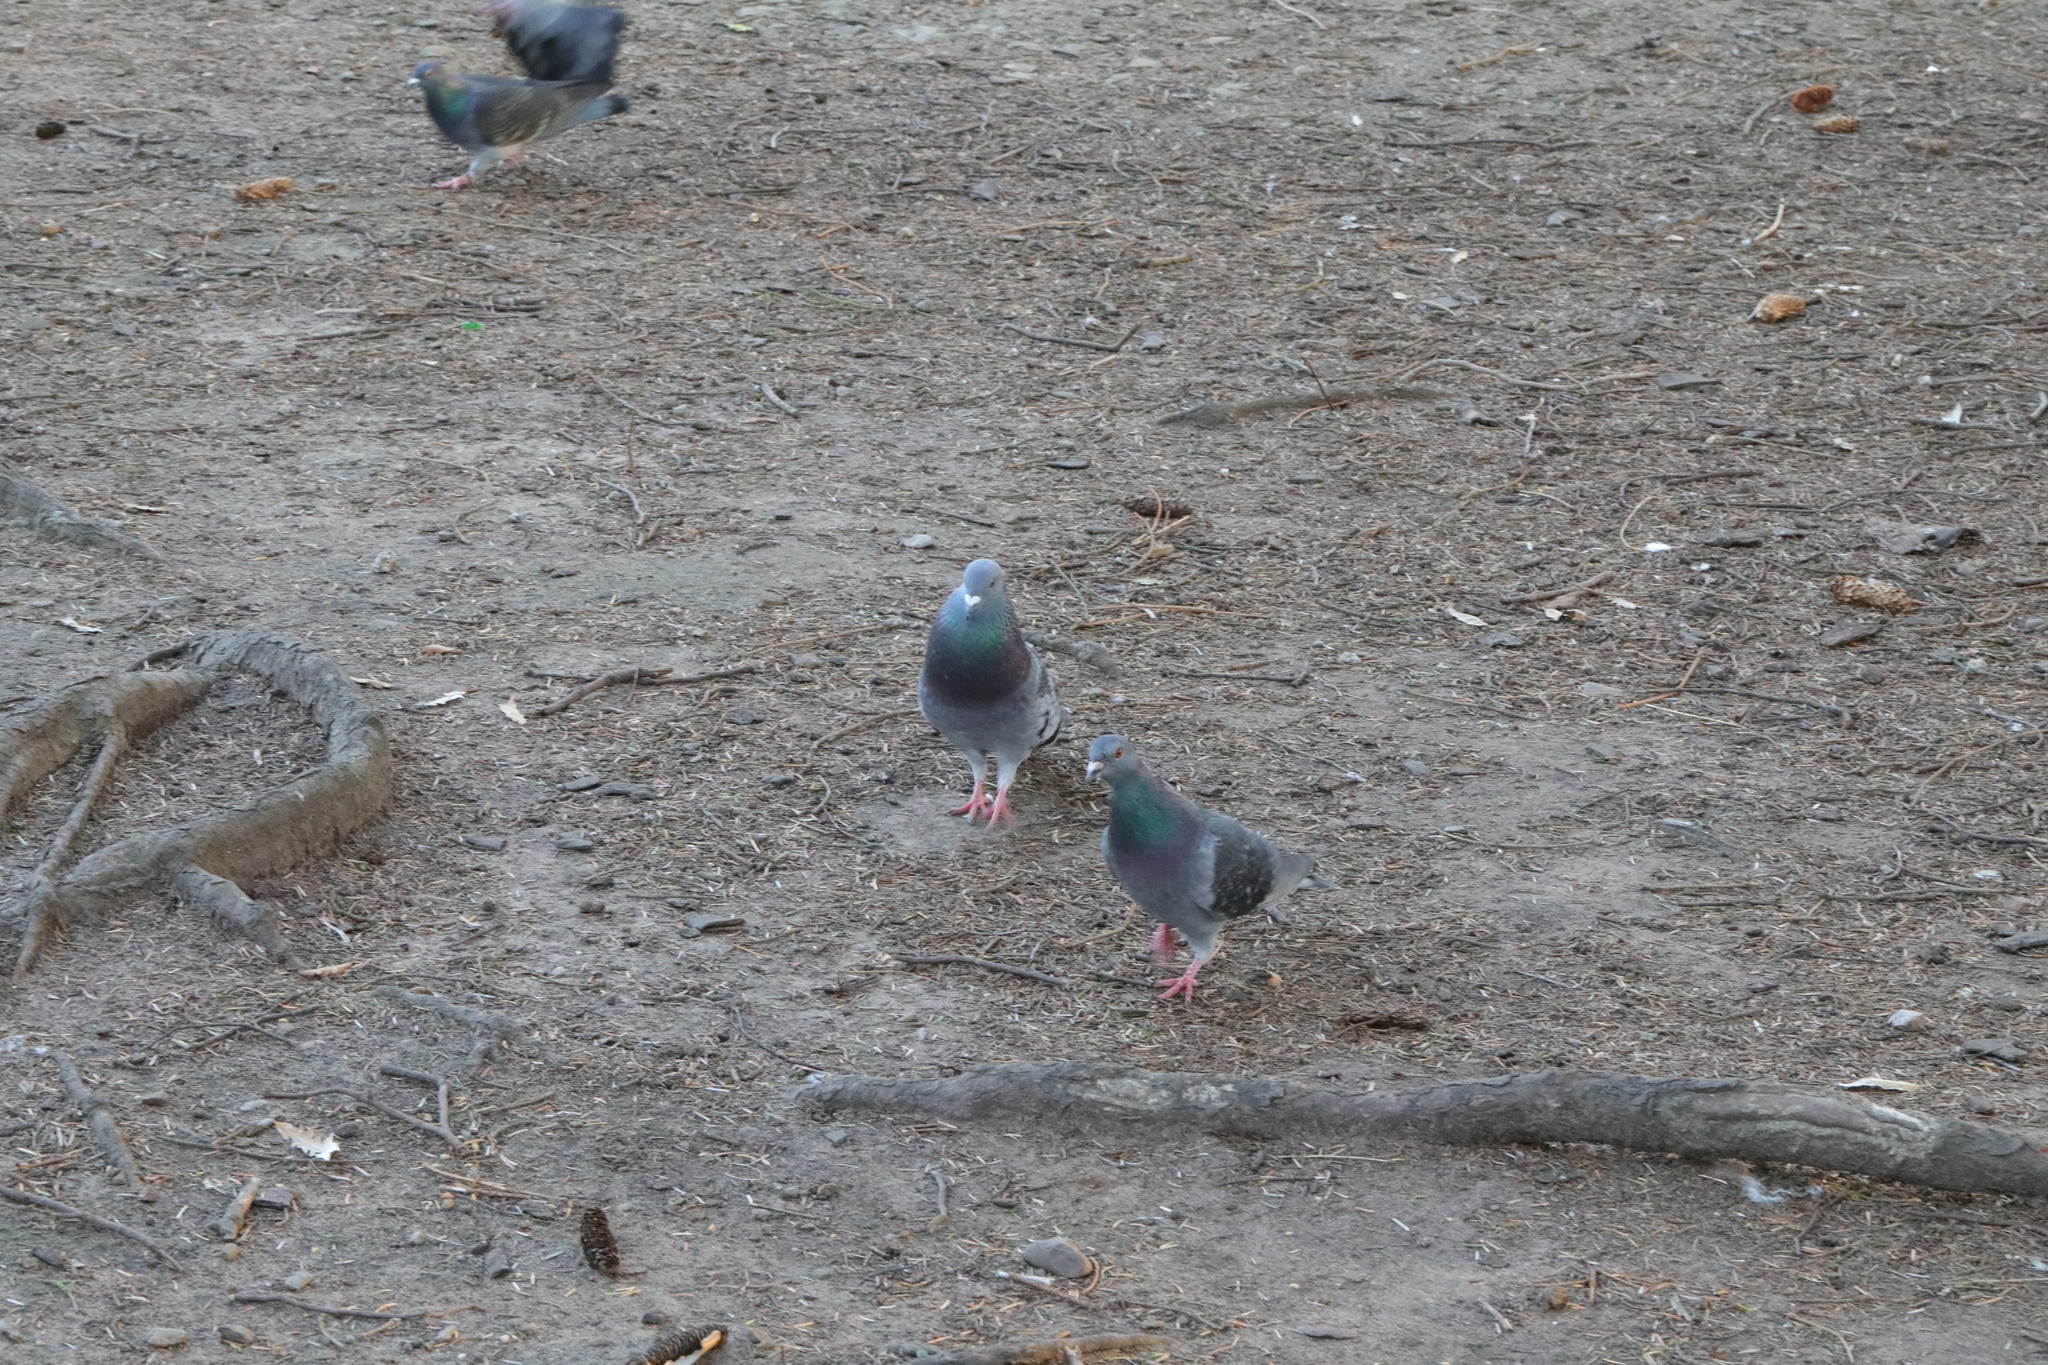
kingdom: Animalia
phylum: Chordata
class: Aves
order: Columbiformes
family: Columbidae
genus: Columba
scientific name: Columba livia
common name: Rock pigeon
